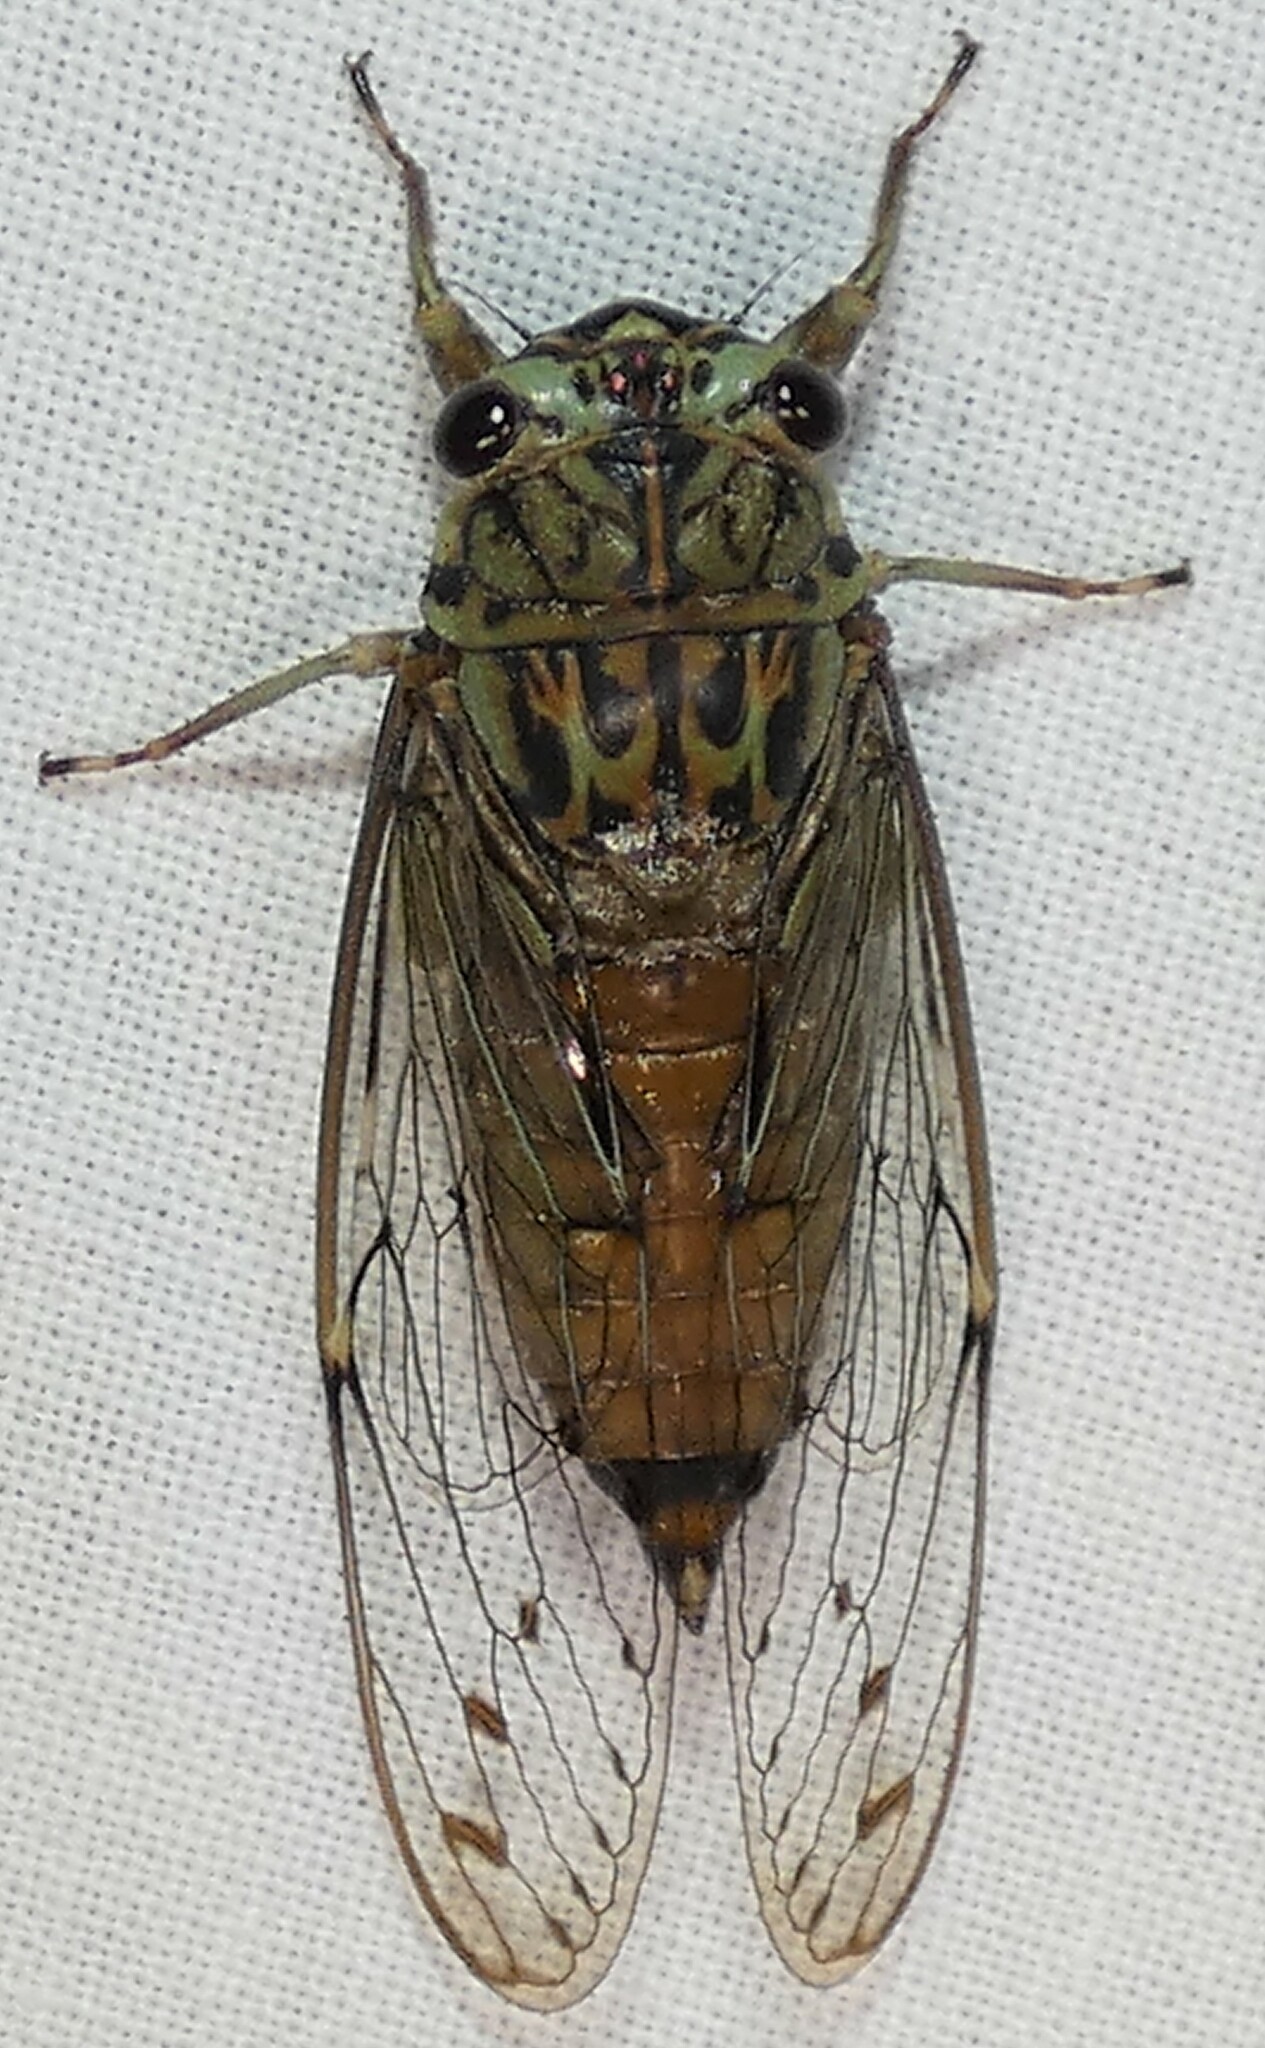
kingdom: Animalia
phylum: Arthropoda
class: Insecta
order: Hemiptera
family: Cicadidae
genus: Neocicada
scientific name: Neocicada hieroglyphica
